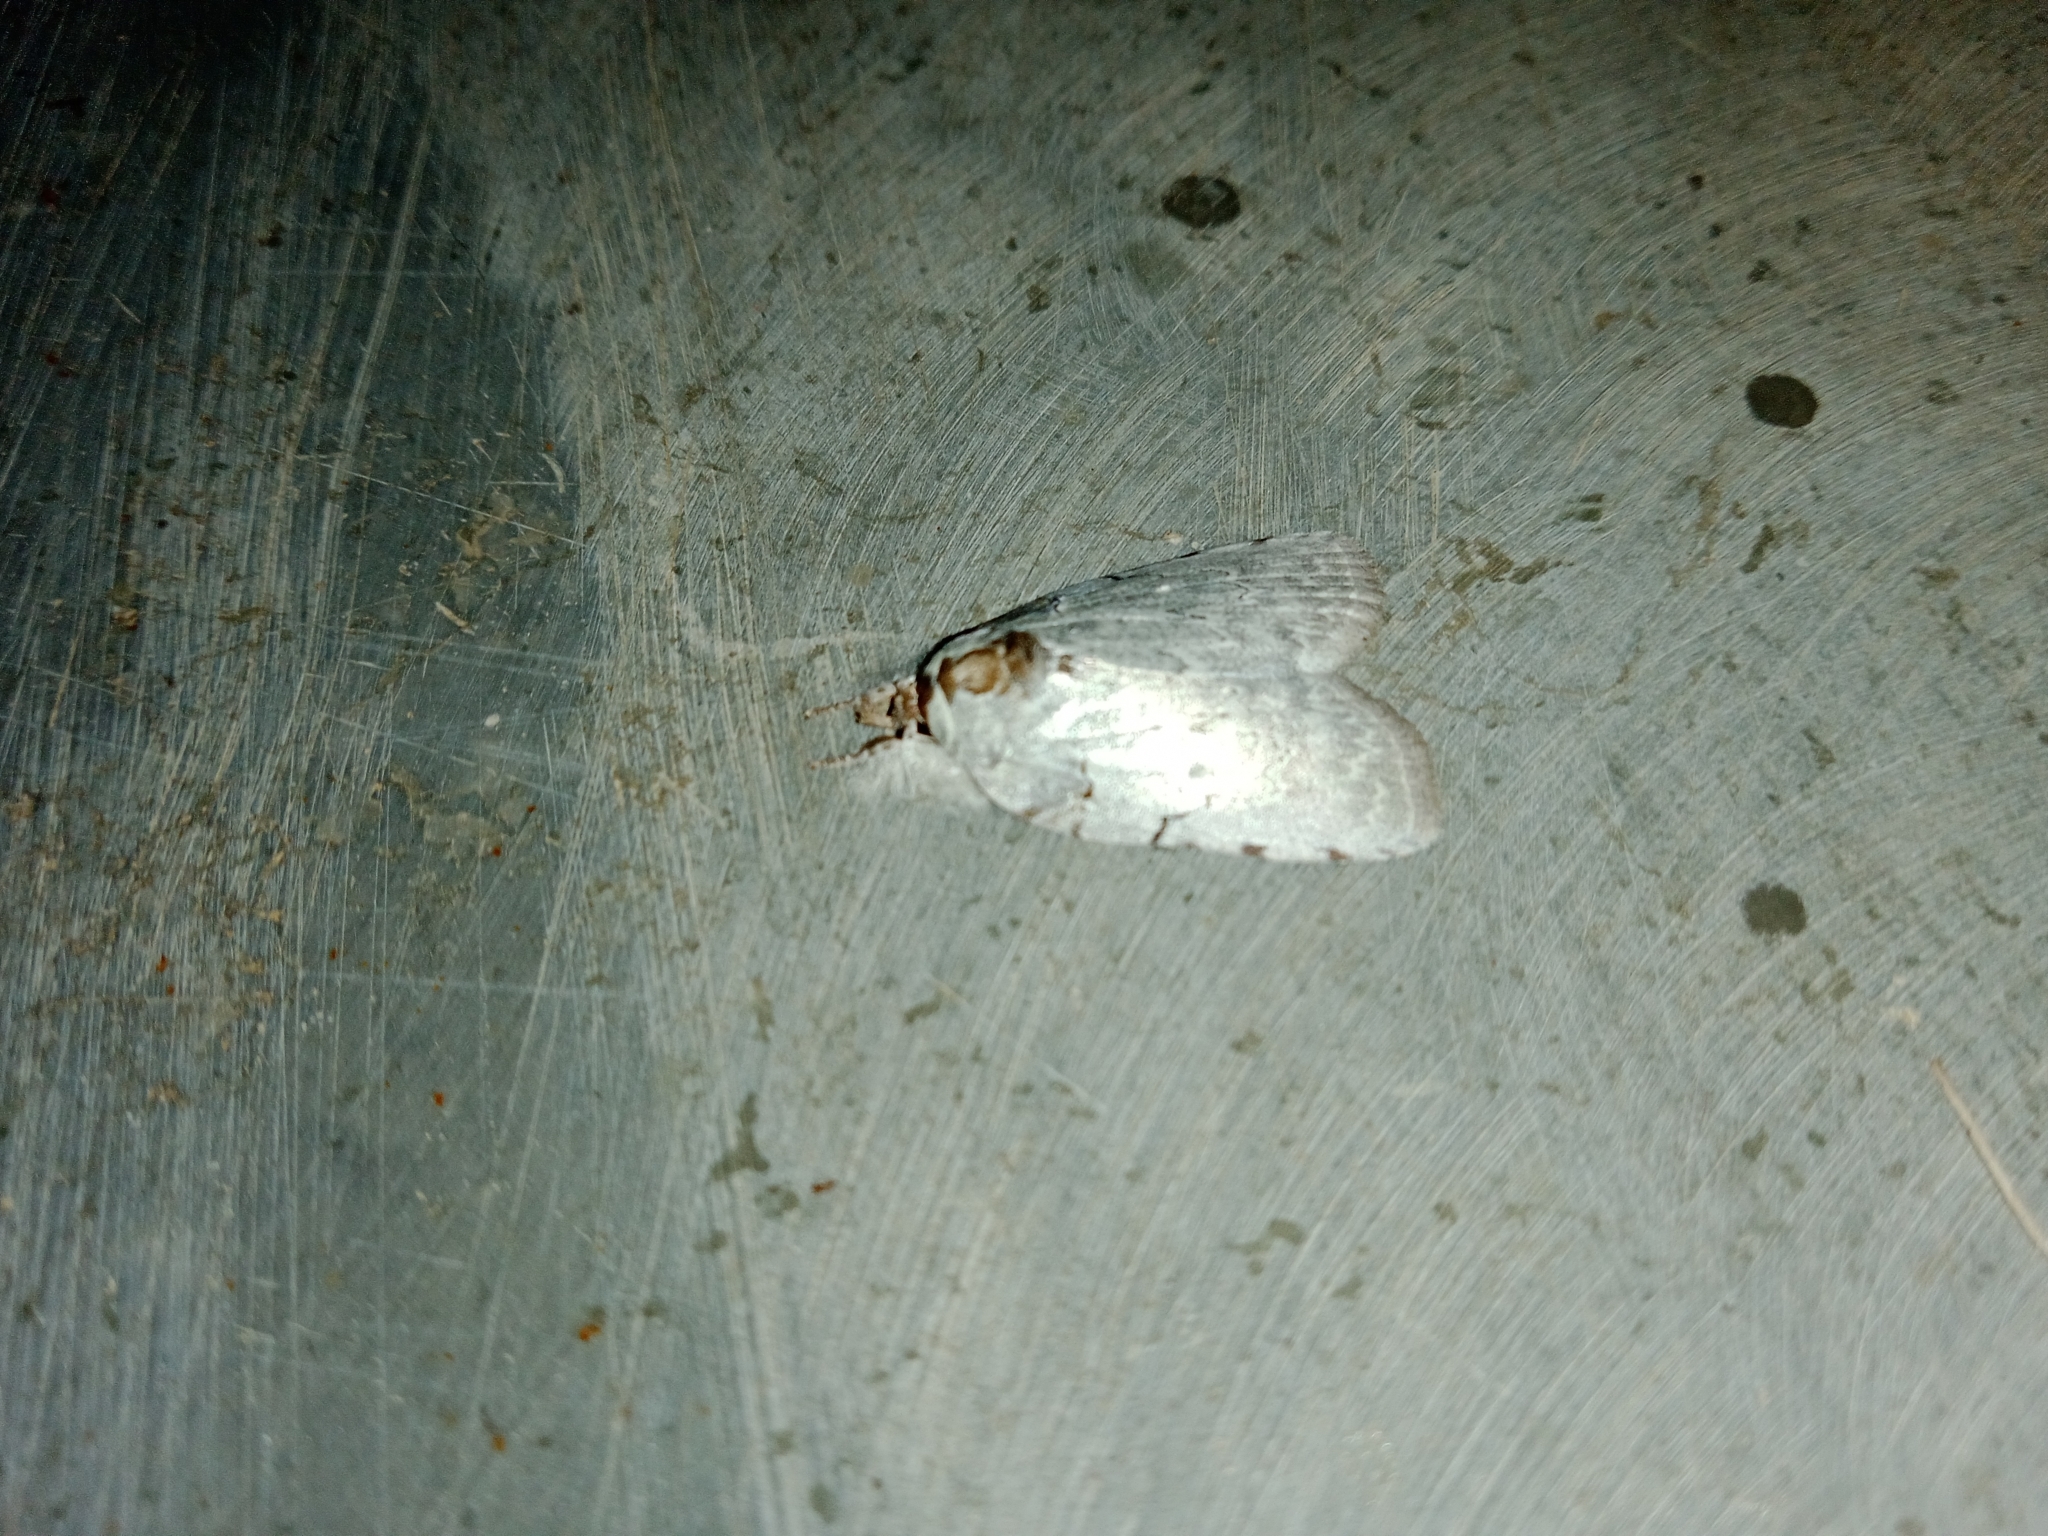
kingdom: Animalia
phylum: Arthropoda
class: Insecta
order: Lepidoptera
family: Nolidae
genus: Ptisciana
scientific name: Ptisciana seminivea
